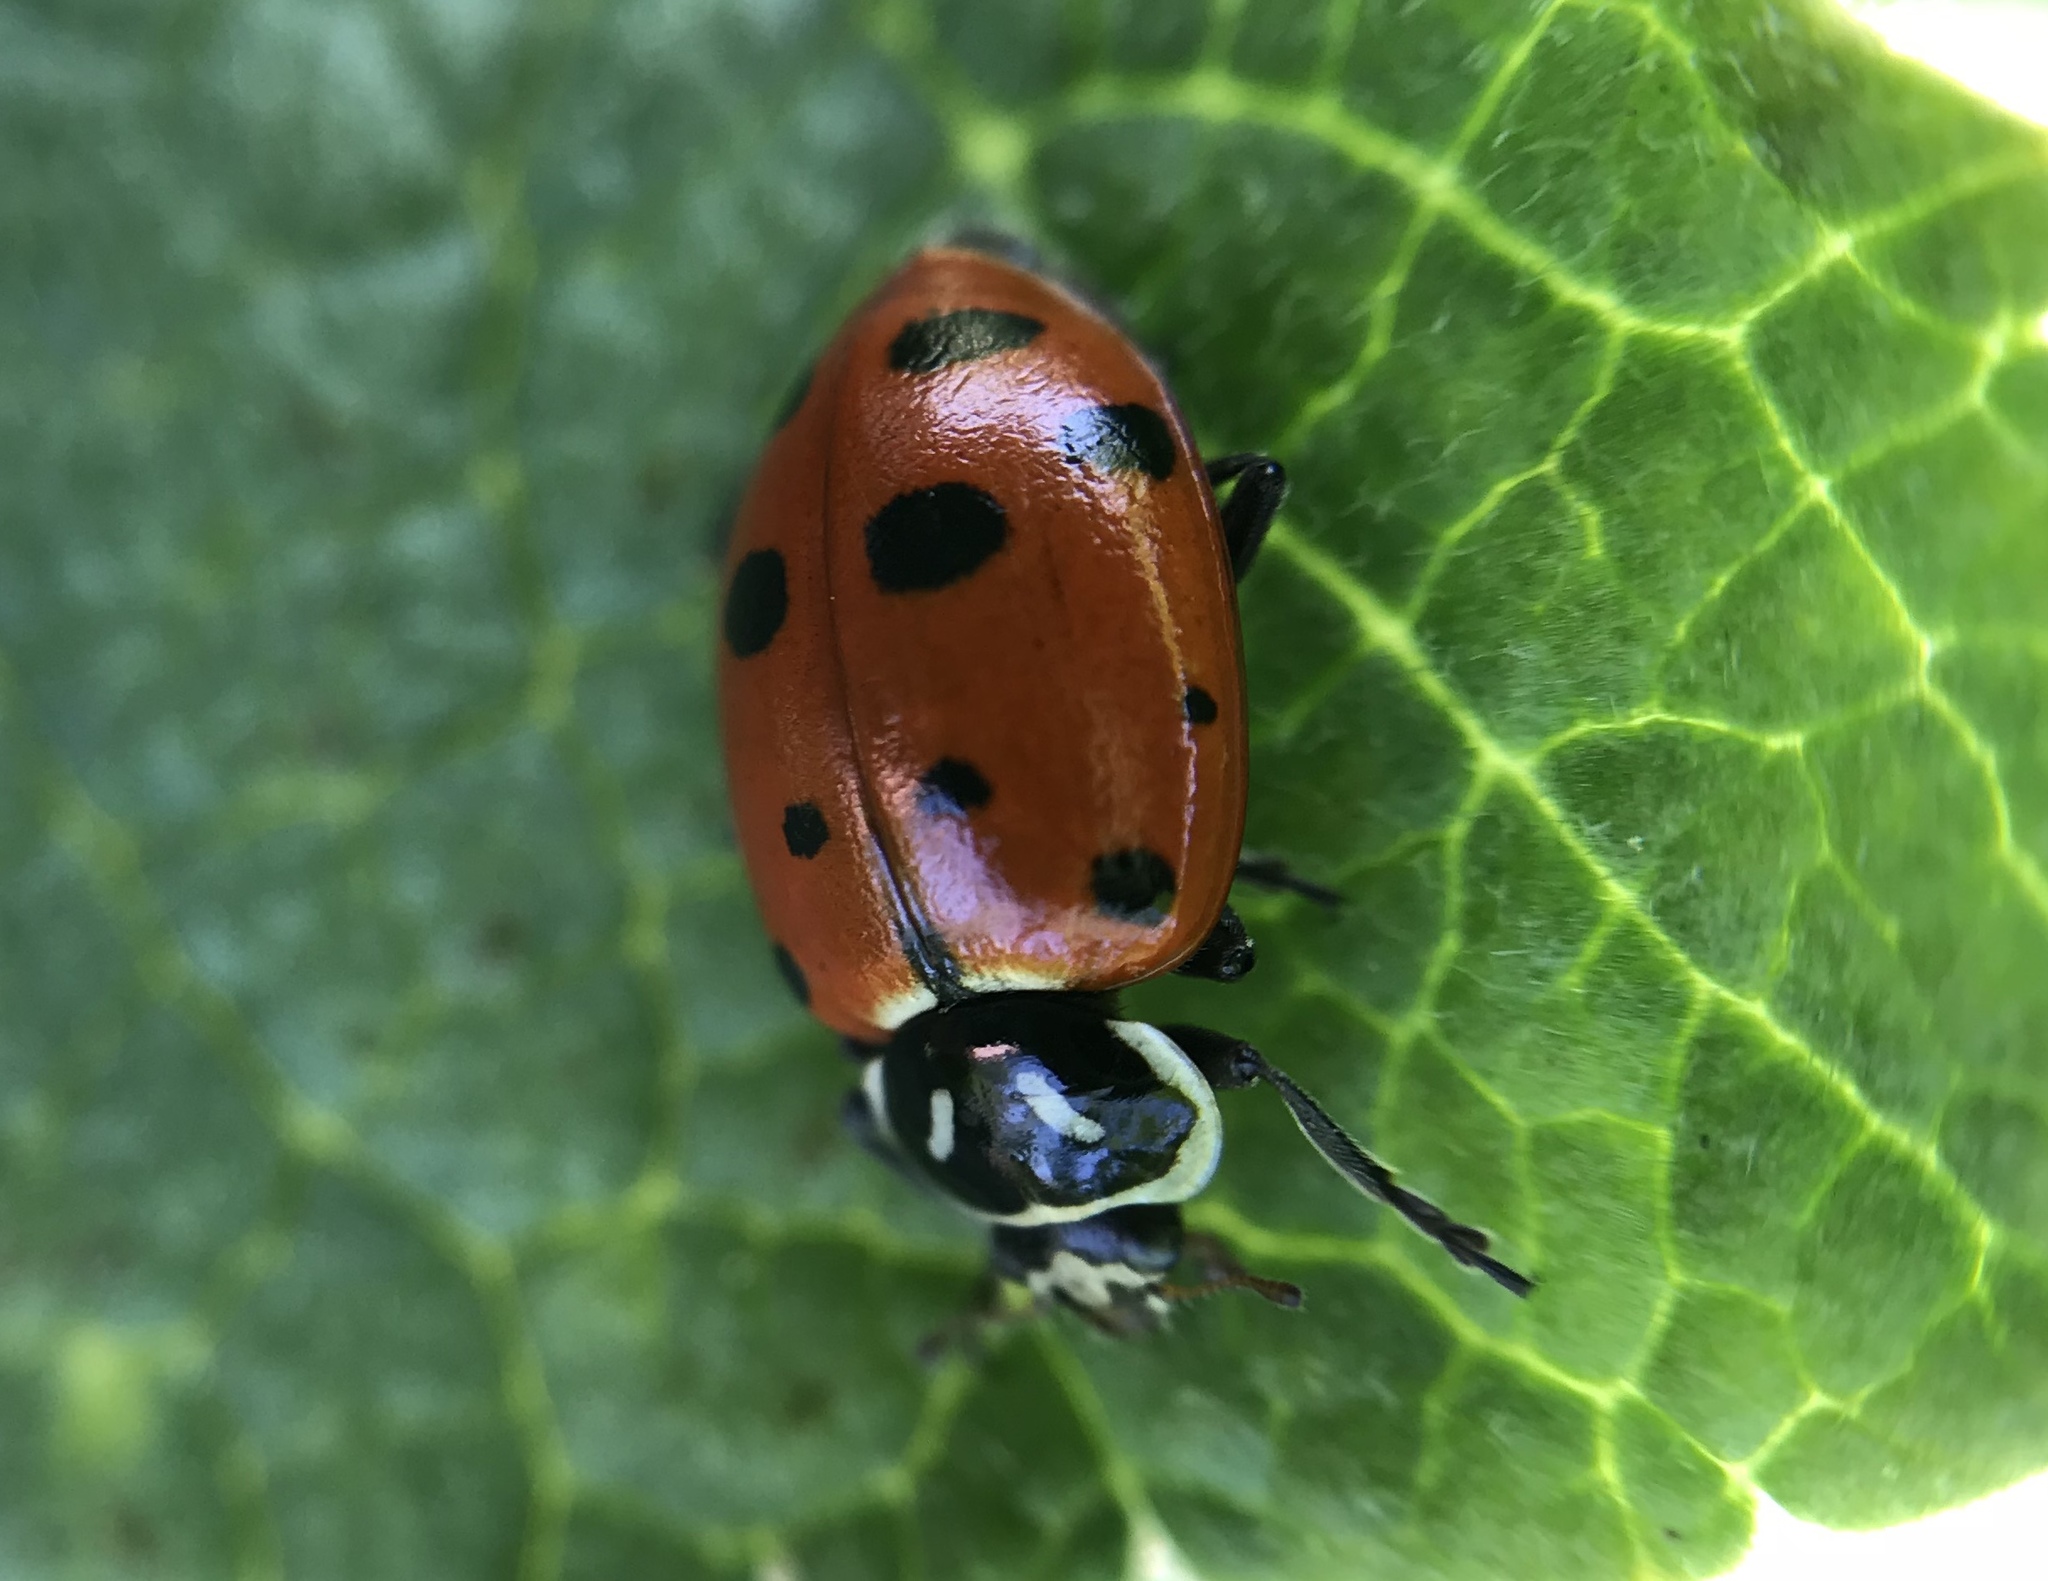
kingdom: Animalia
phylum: Arthropoda
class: Insecta
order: Coleoptera
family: Coccinellidae
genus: Hippodamia
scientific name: Hippodamia convergens
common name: Convergent lady beetle
